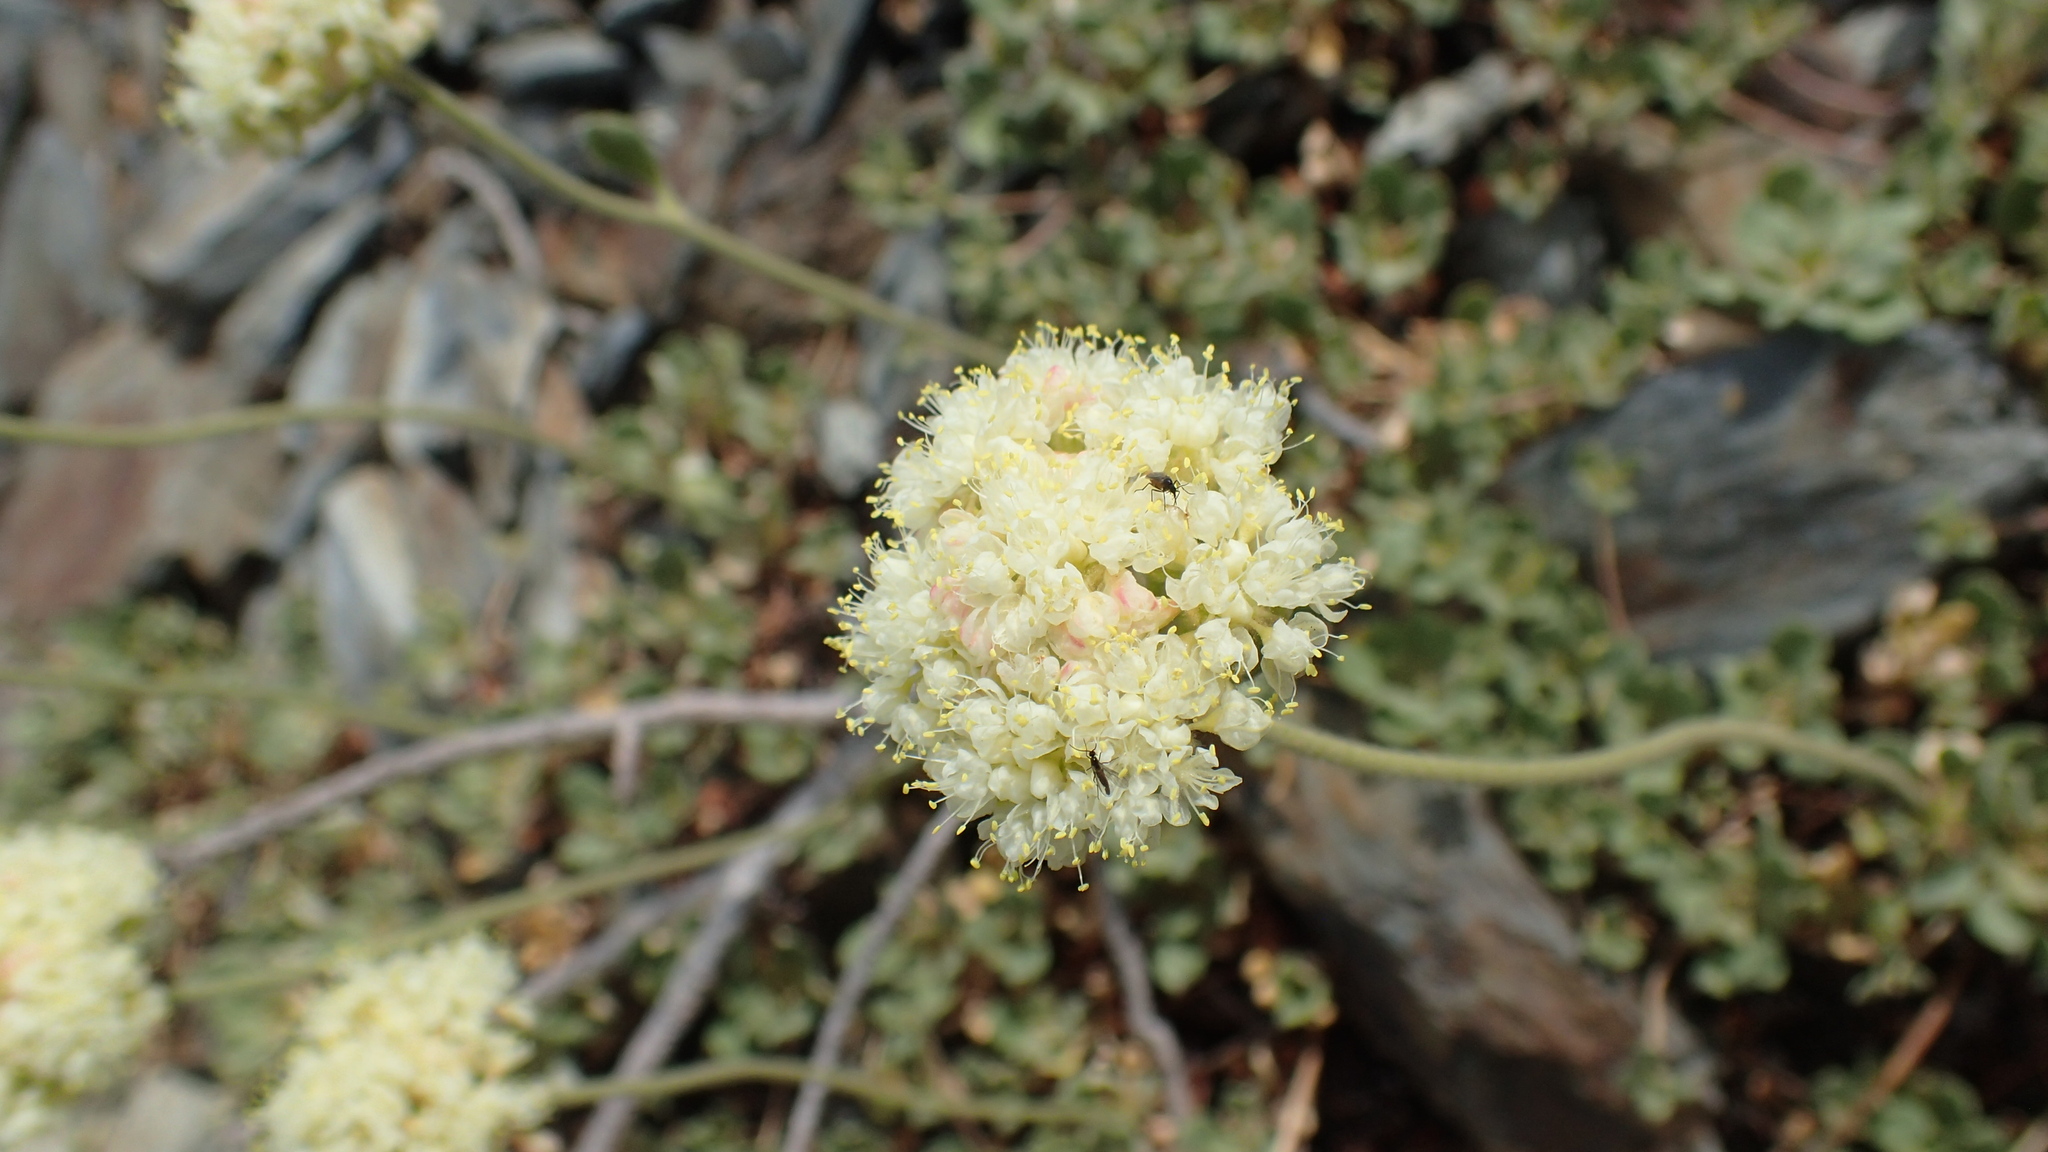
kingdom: Plantae
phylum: Tracheophyta
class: Magnoliopsida
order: Caryophyllales
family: Polygonaceae
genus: Eriogonum
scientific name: Eriogonum ursinum
